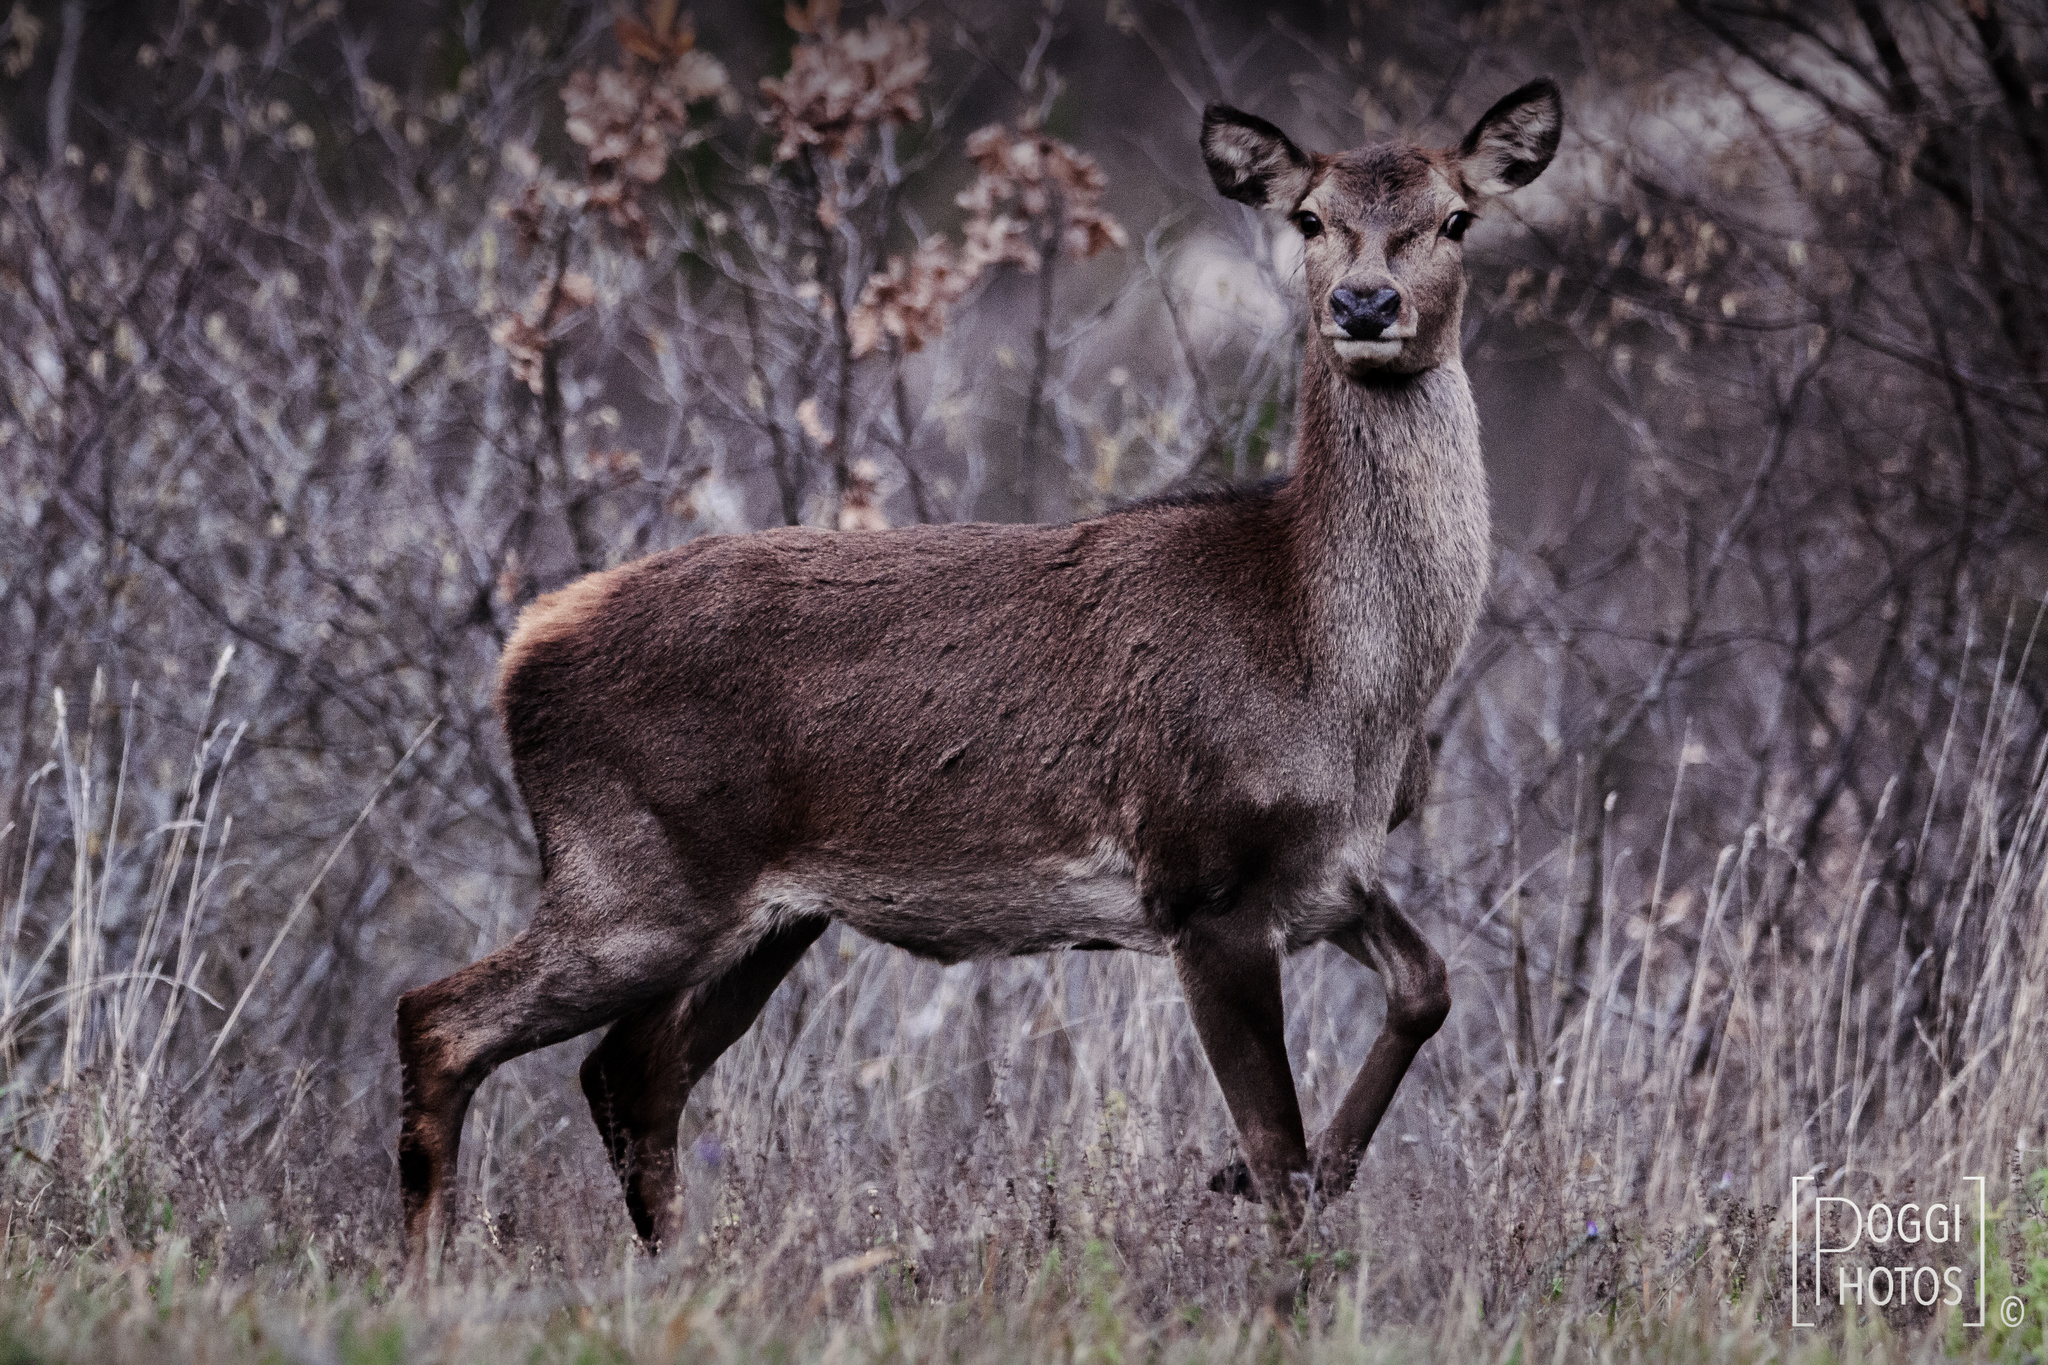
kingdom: Animalia
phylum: Chordata
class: Mammalia
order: Artiodactyla
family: Cervidae
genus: Cervus
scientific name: Cervus elaphus
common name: Red deer
